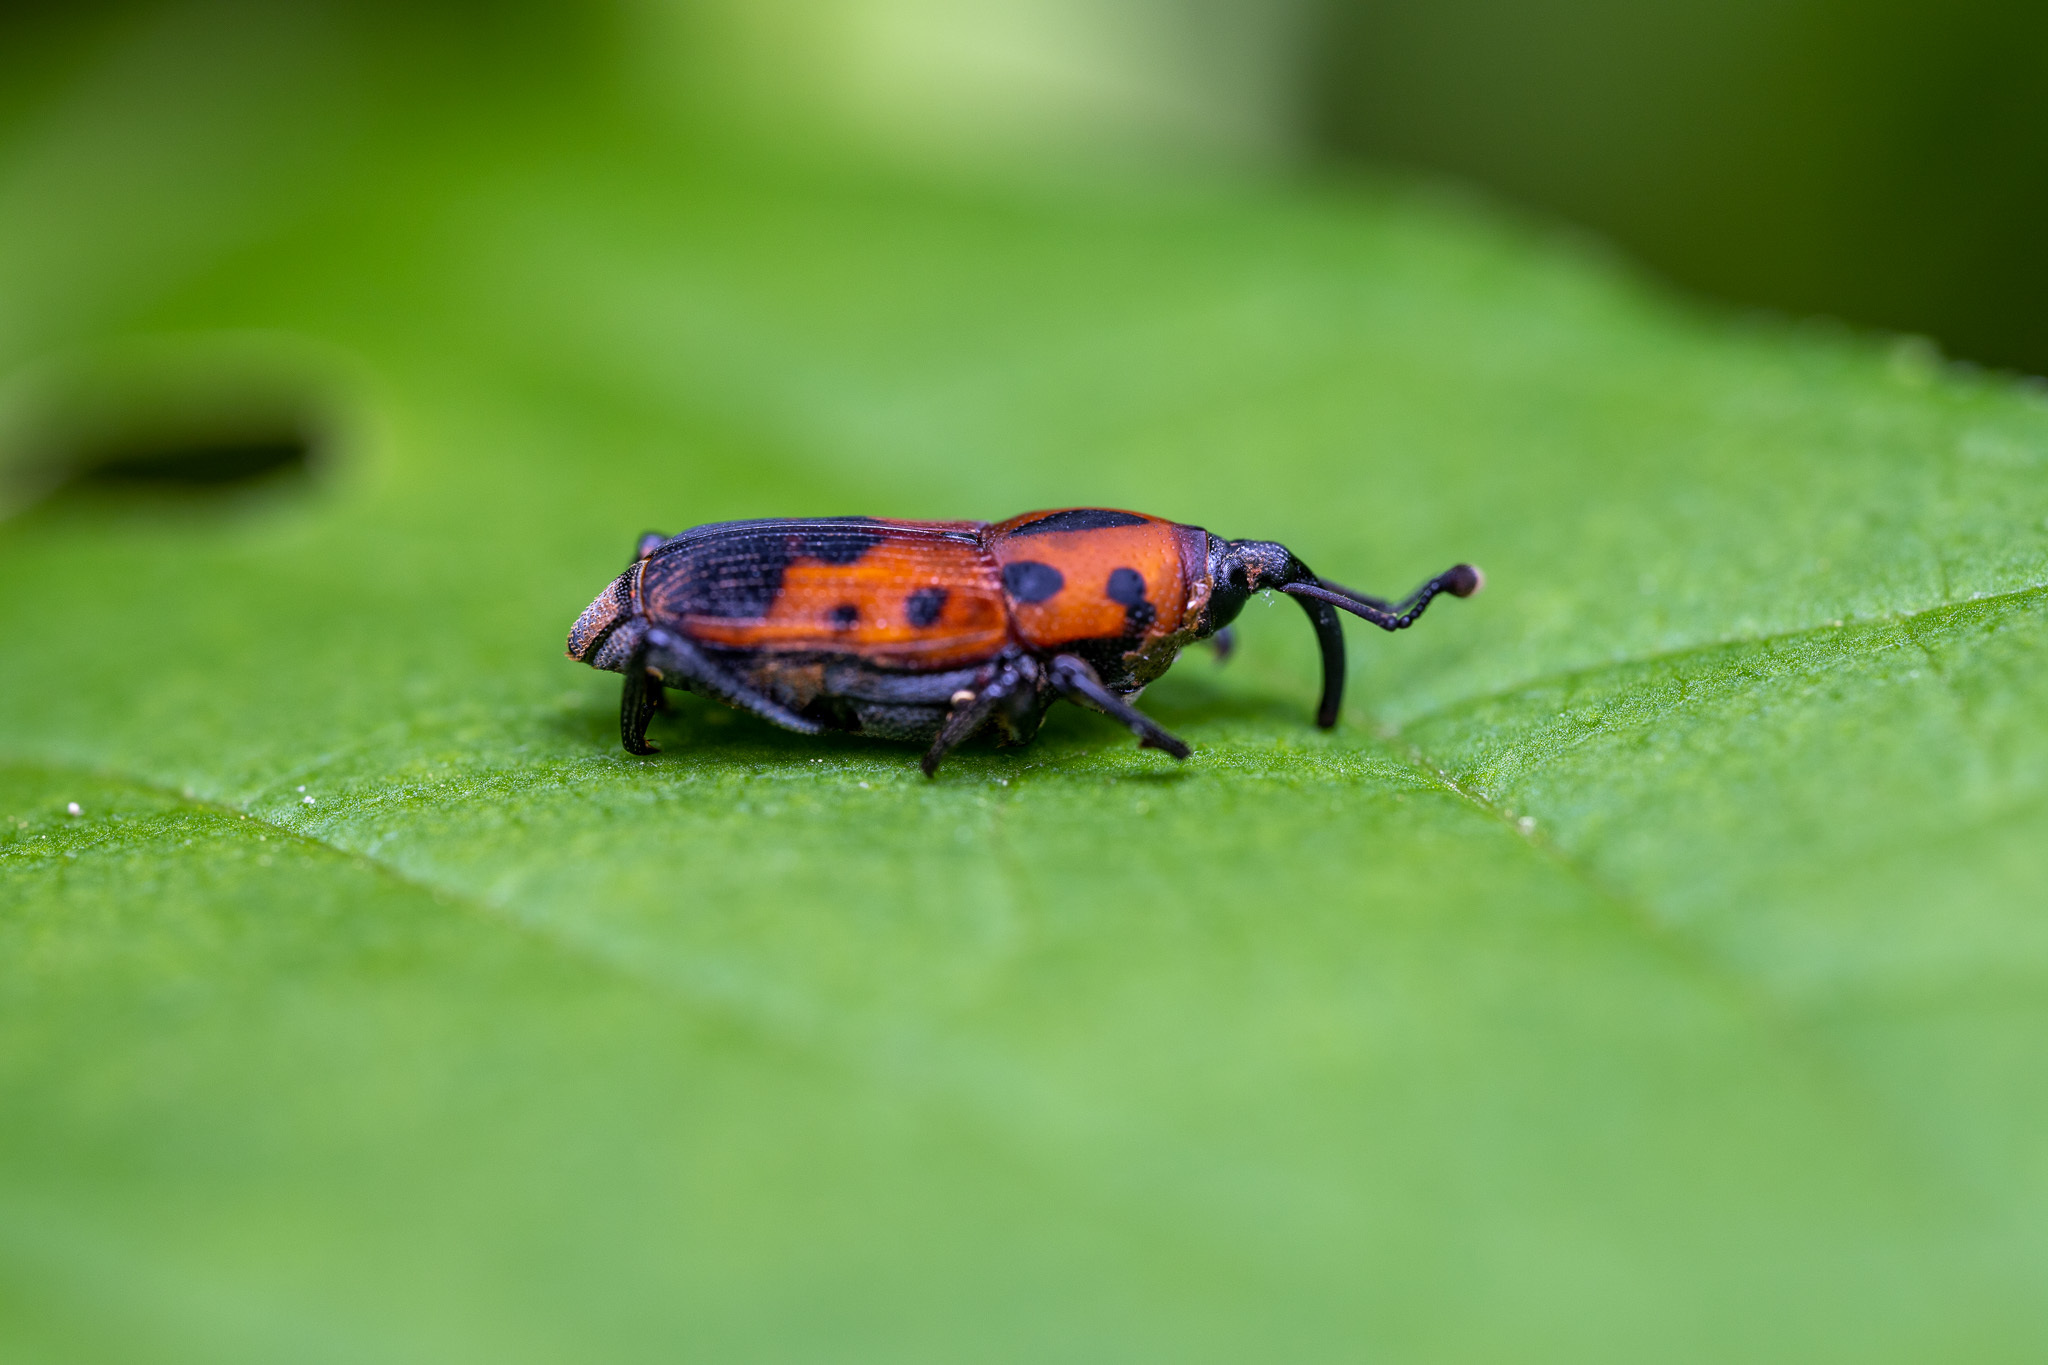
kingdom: Animalia
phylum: Arthropoda
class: Insecta
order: Coleoptera
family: Dryophthoridae
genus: Rhodobaenus
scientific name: Rhodobaenus quinquepunctatus
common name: Cocklebur weevil
